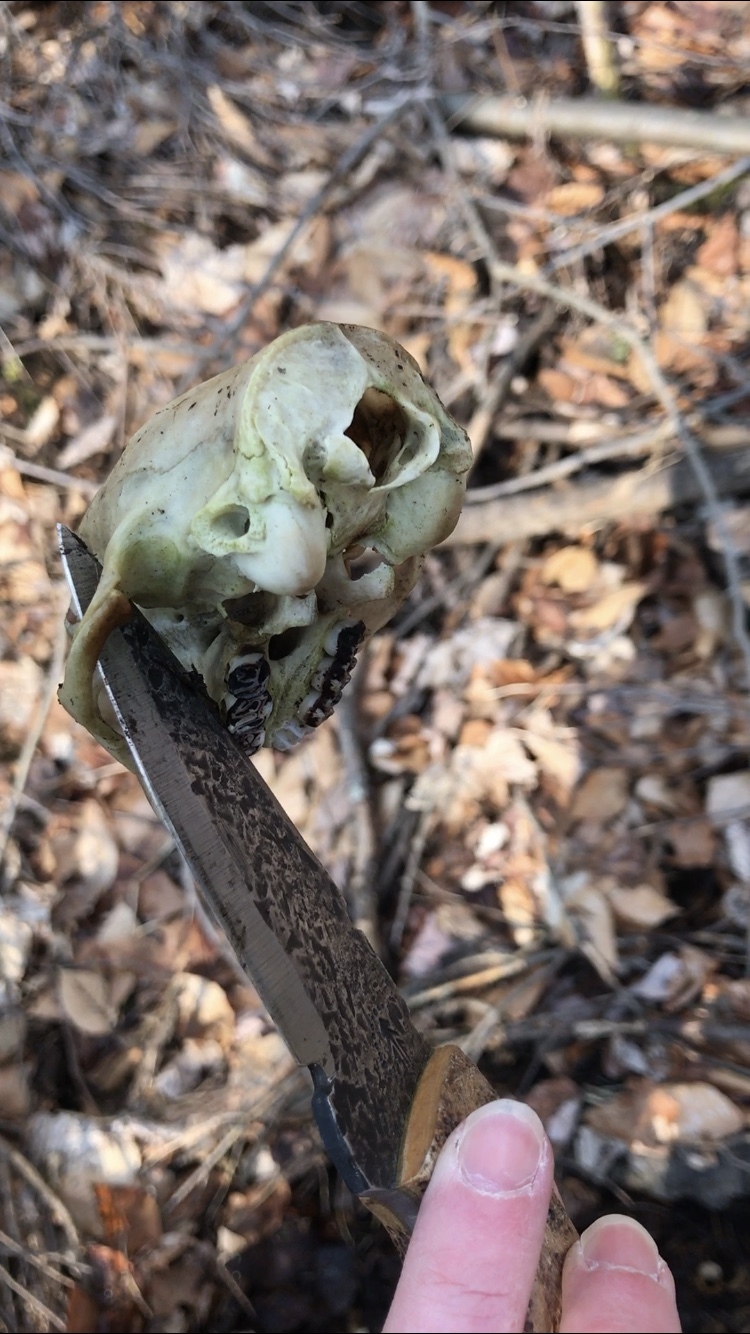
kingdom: Animalia
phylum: Chordata
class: Mammalia
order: Rodentia
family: Erethizontidae
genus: Erethizon
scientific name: Erethizon dorsatus
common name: North american porcupine
